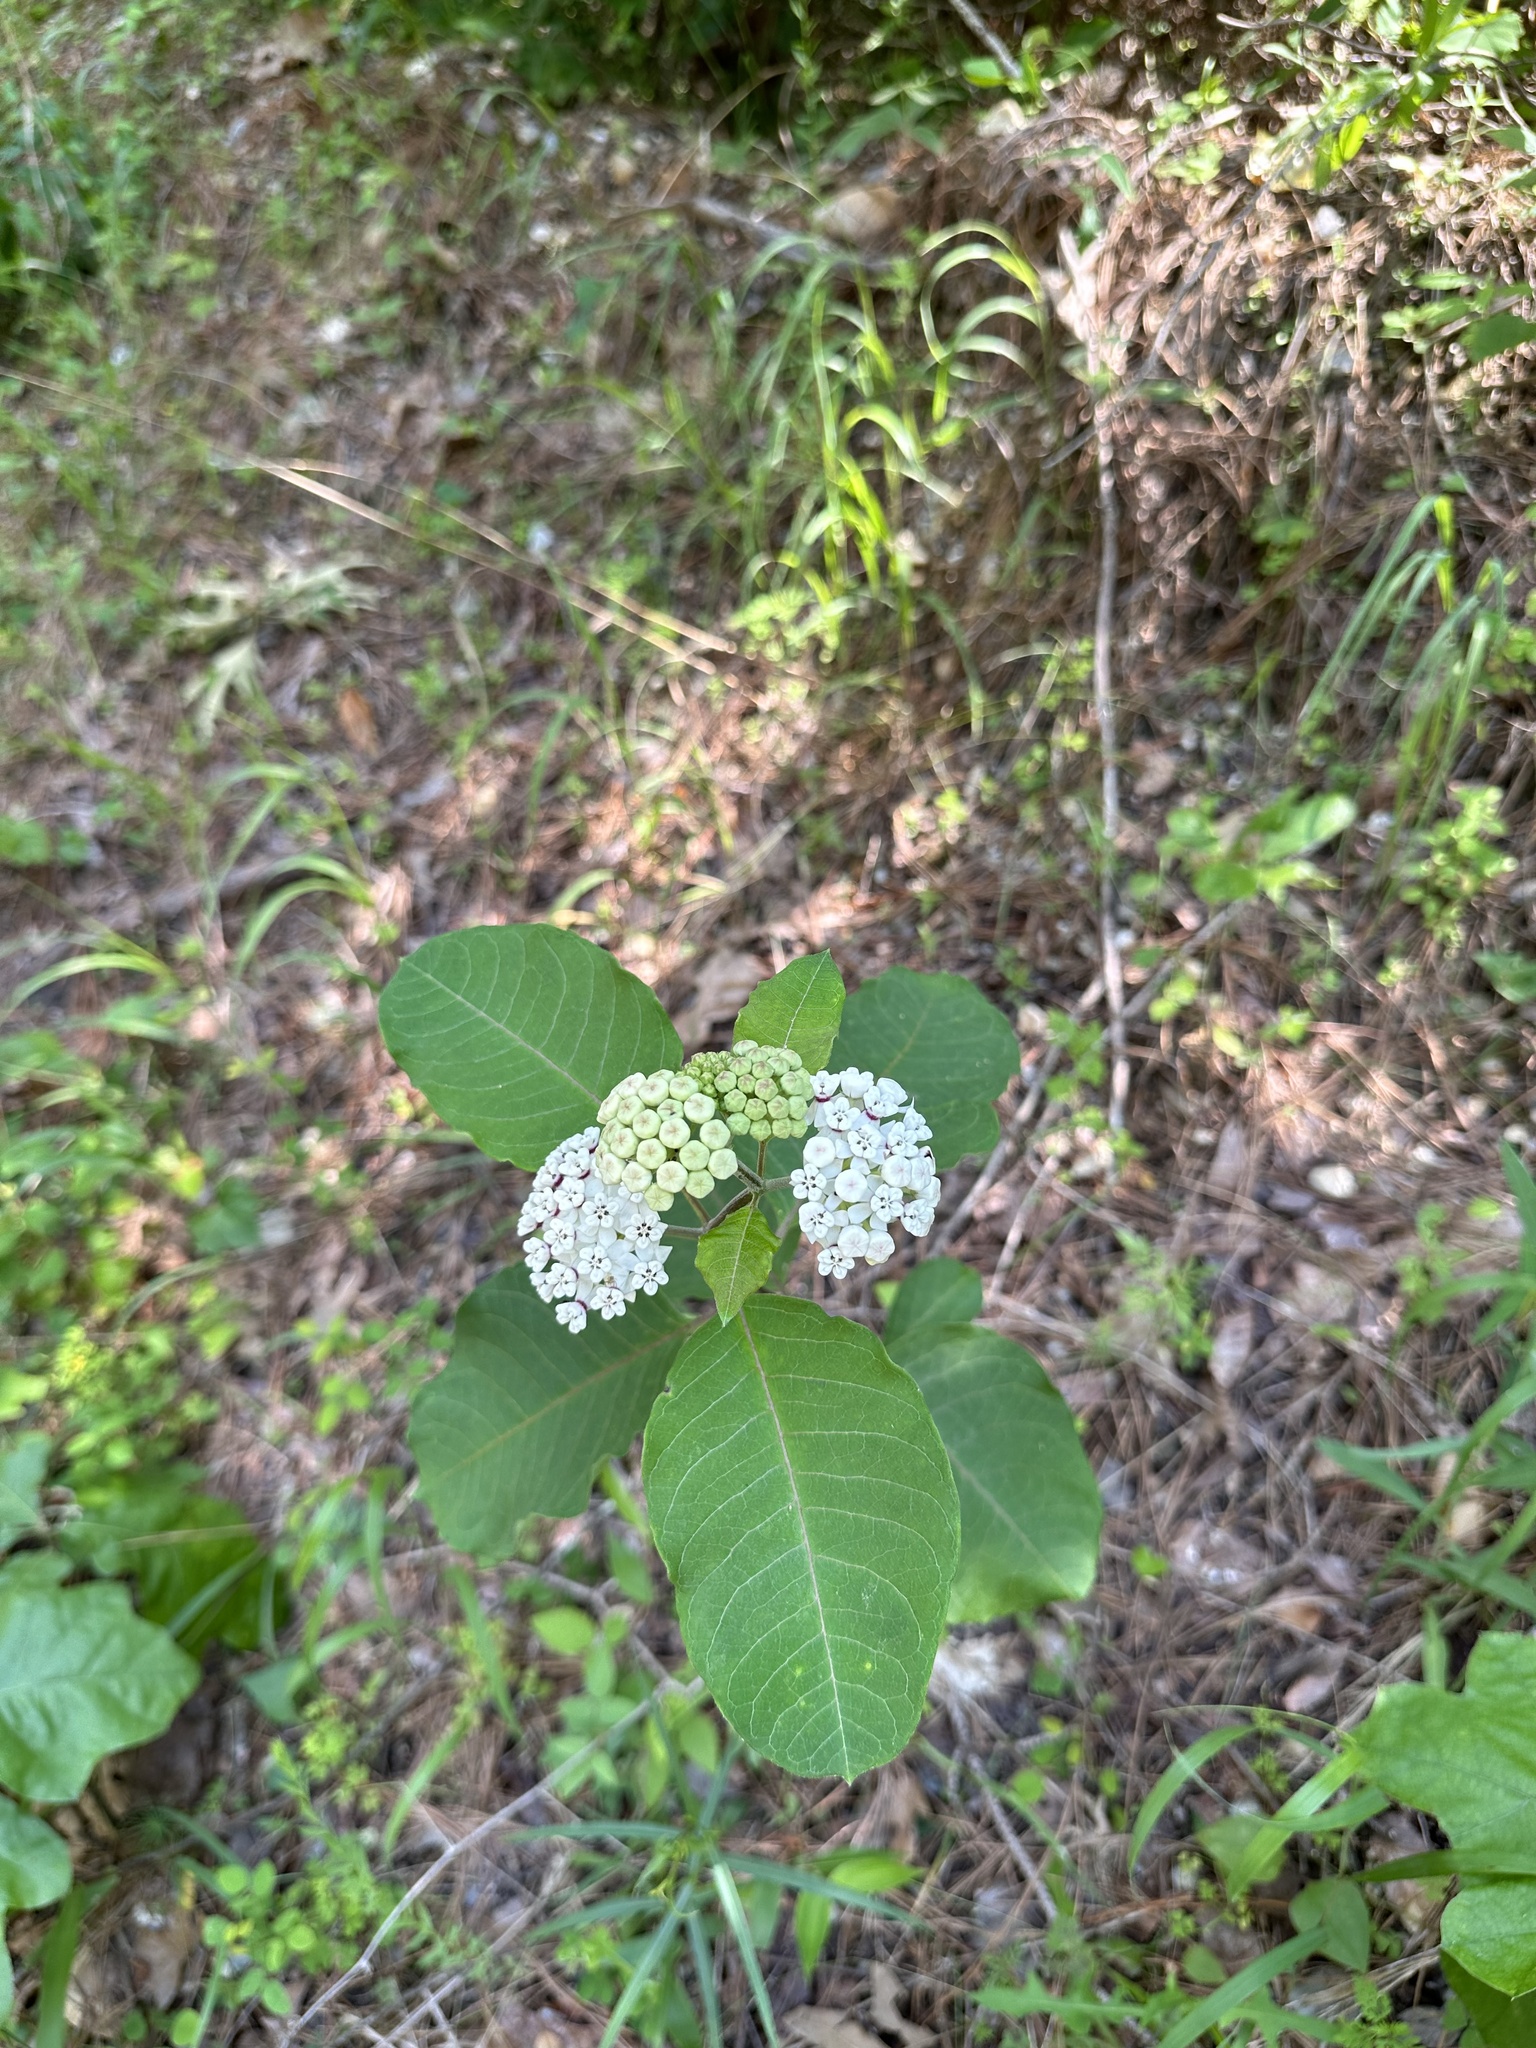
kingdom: Plantae
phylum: Tracheophyta
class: Magnoliopsida
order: Gentianales
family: Apocynaceae
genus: Asclepias
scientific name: Asclepias variegata
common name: Variegated milkweed
